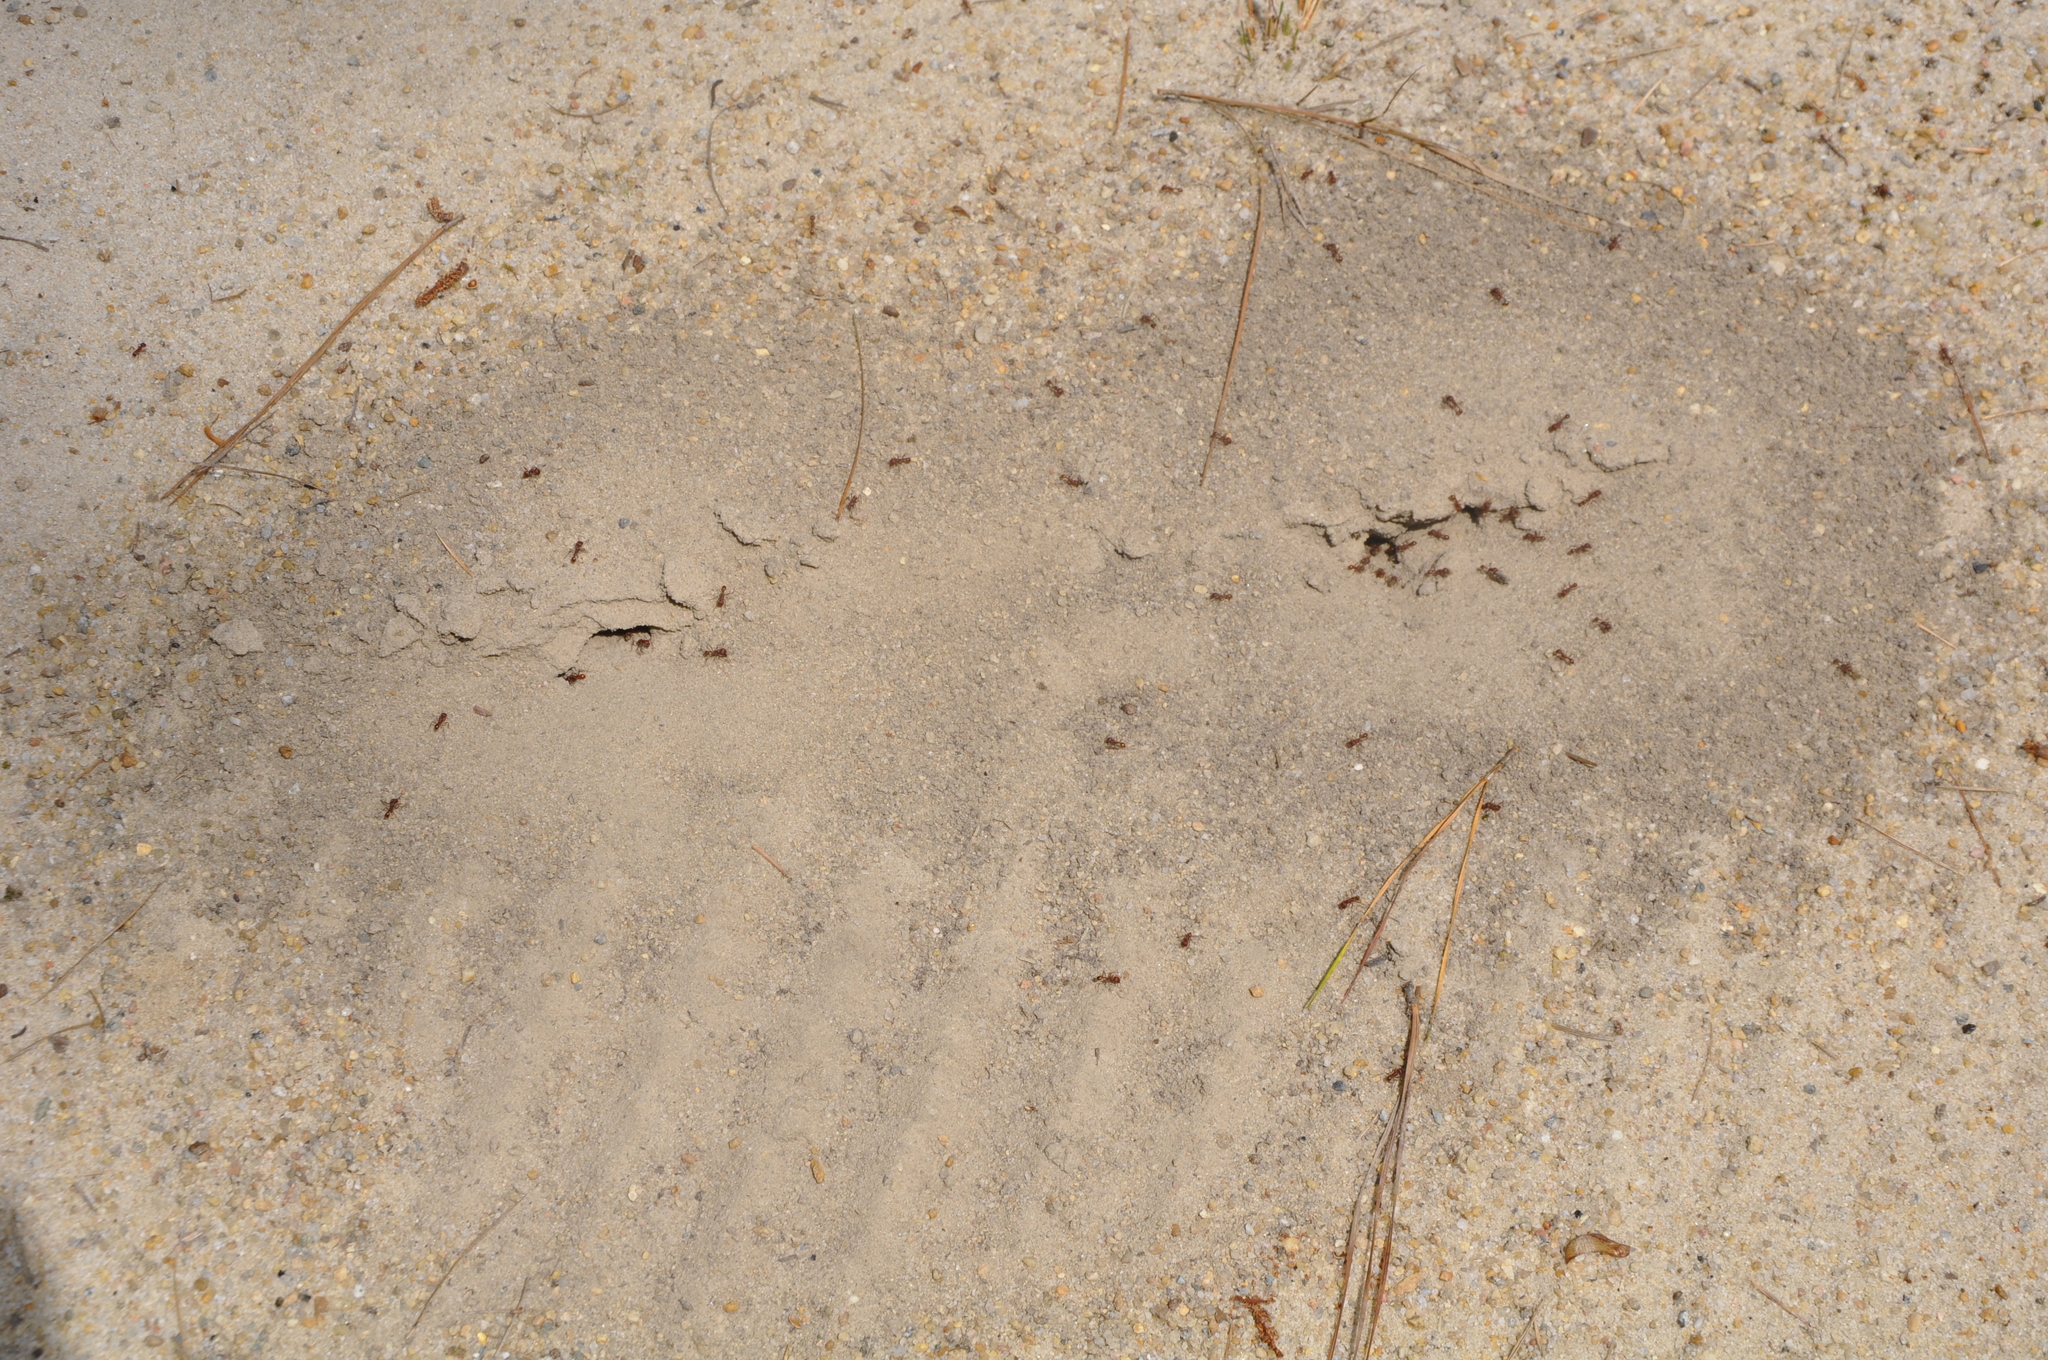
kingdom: Animalia
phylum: Arthropoda
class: Insecta
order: Hymenoptera
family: Formicidae
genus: Pogonomyrmex
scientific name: Pogonomyrmex badius
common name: Florida harvester ant
